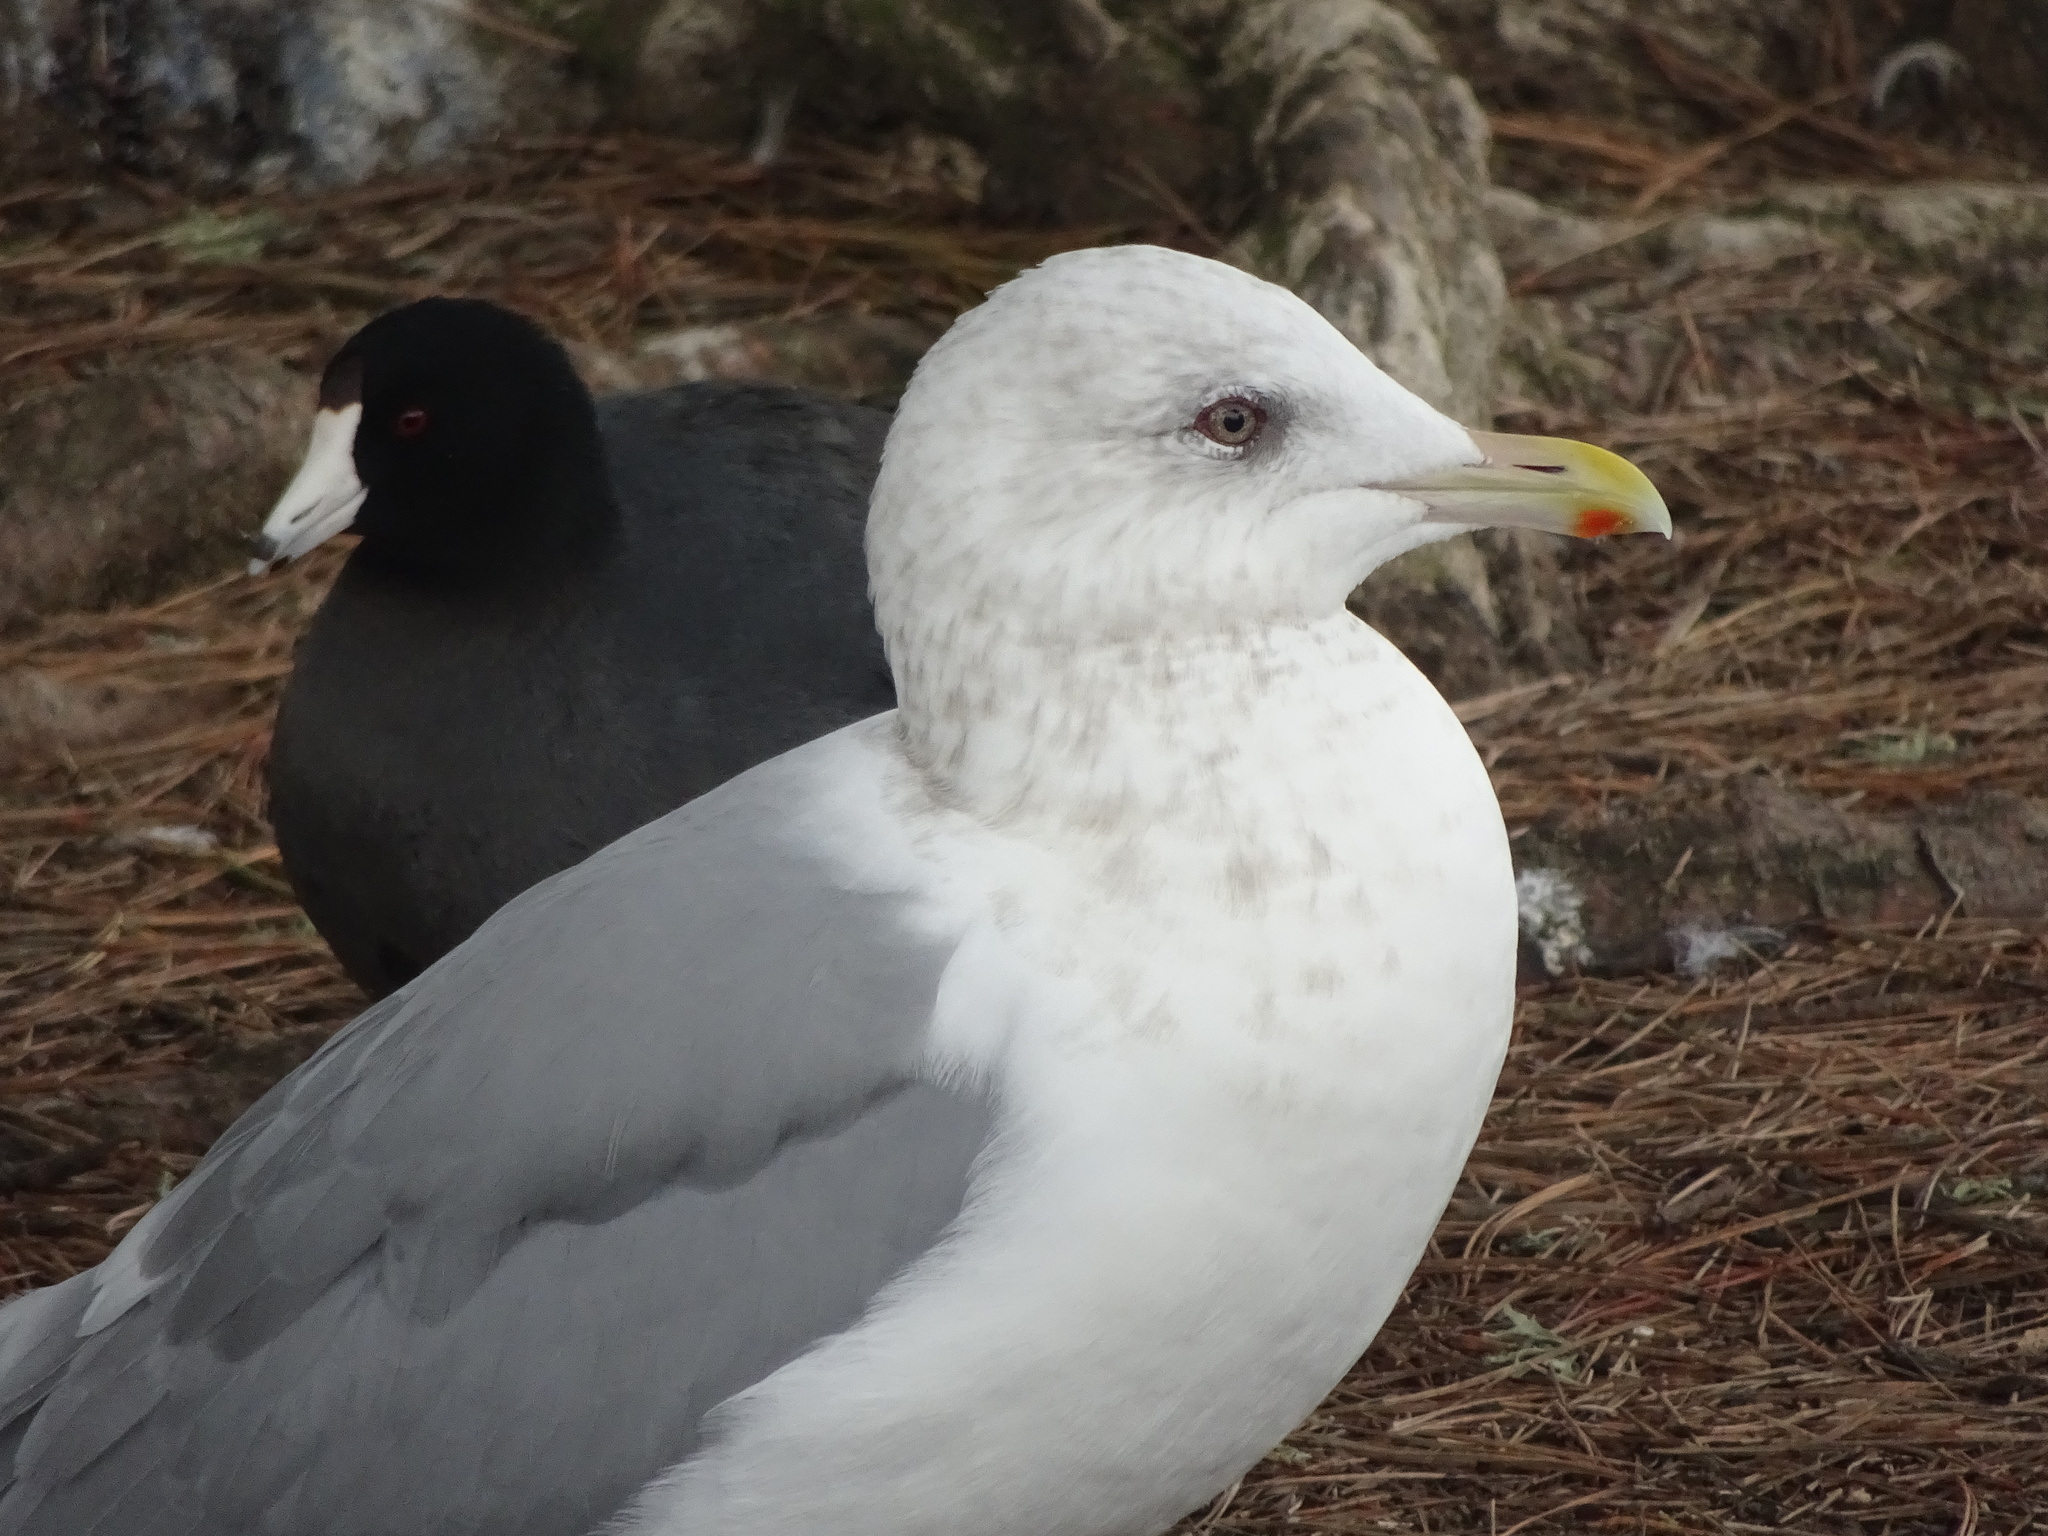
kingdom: Animalia
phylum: Chordata
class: Aves
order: Charadriiformes
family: Laridae
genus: Larus
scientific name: Larus glaucoides
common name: Iceland gull
